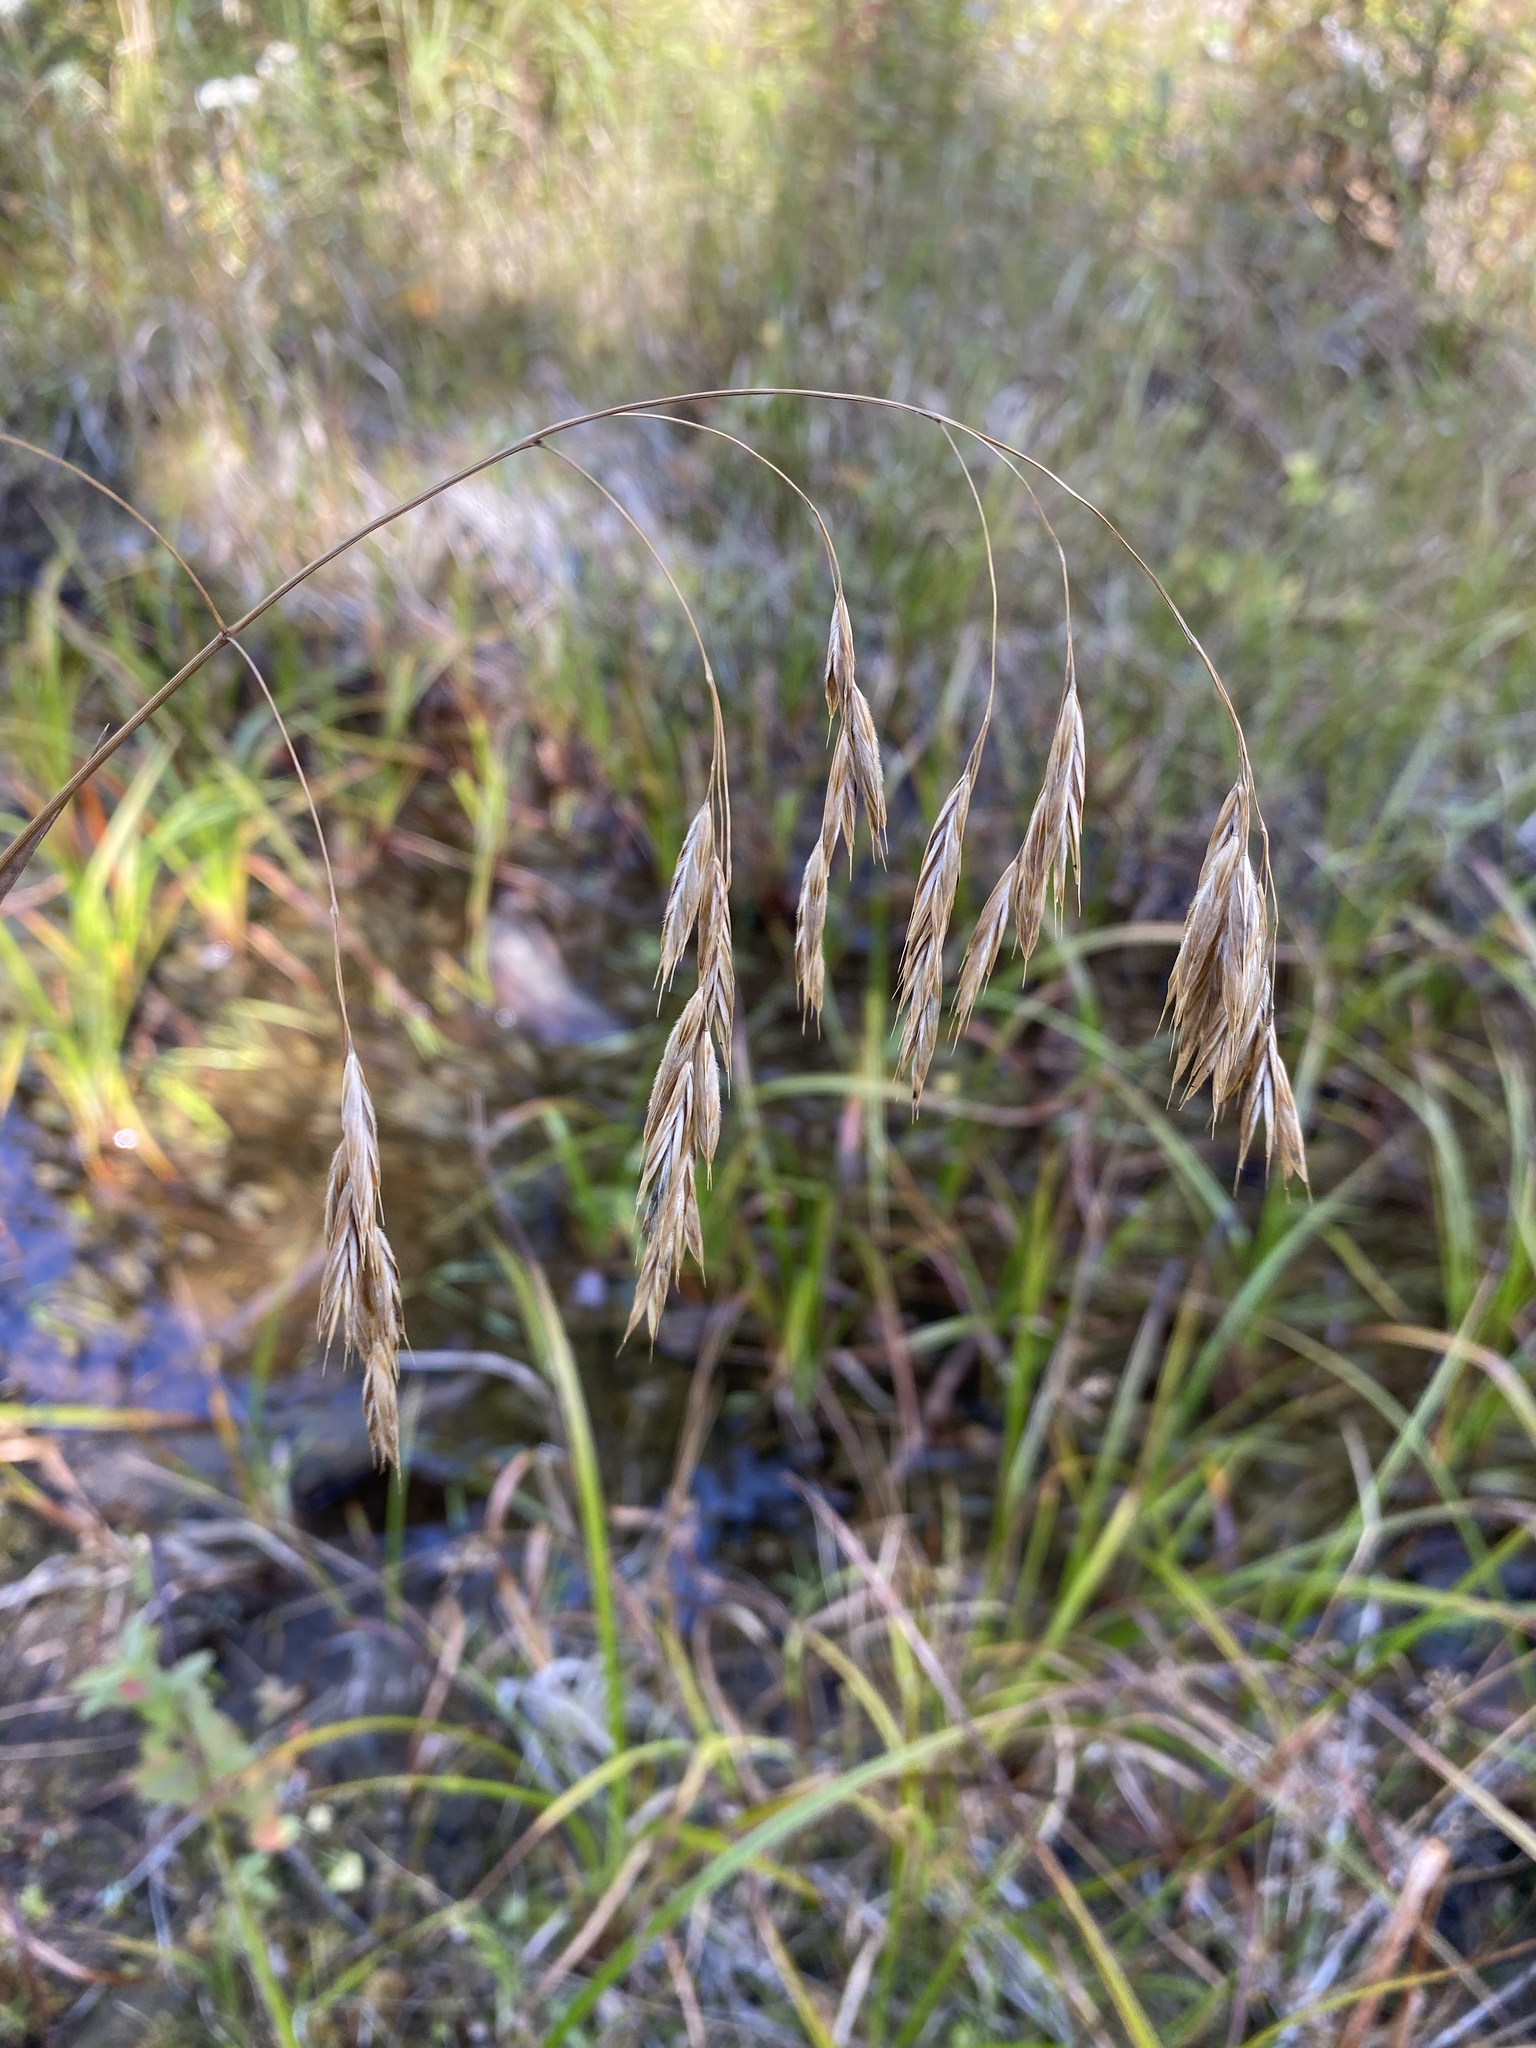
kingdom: Plantae
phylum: Tracheophyta
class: Liliopsida
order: Poales
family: Poaceae
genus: Bromus
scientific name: Bromus ciliatus
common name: Fringe brome
